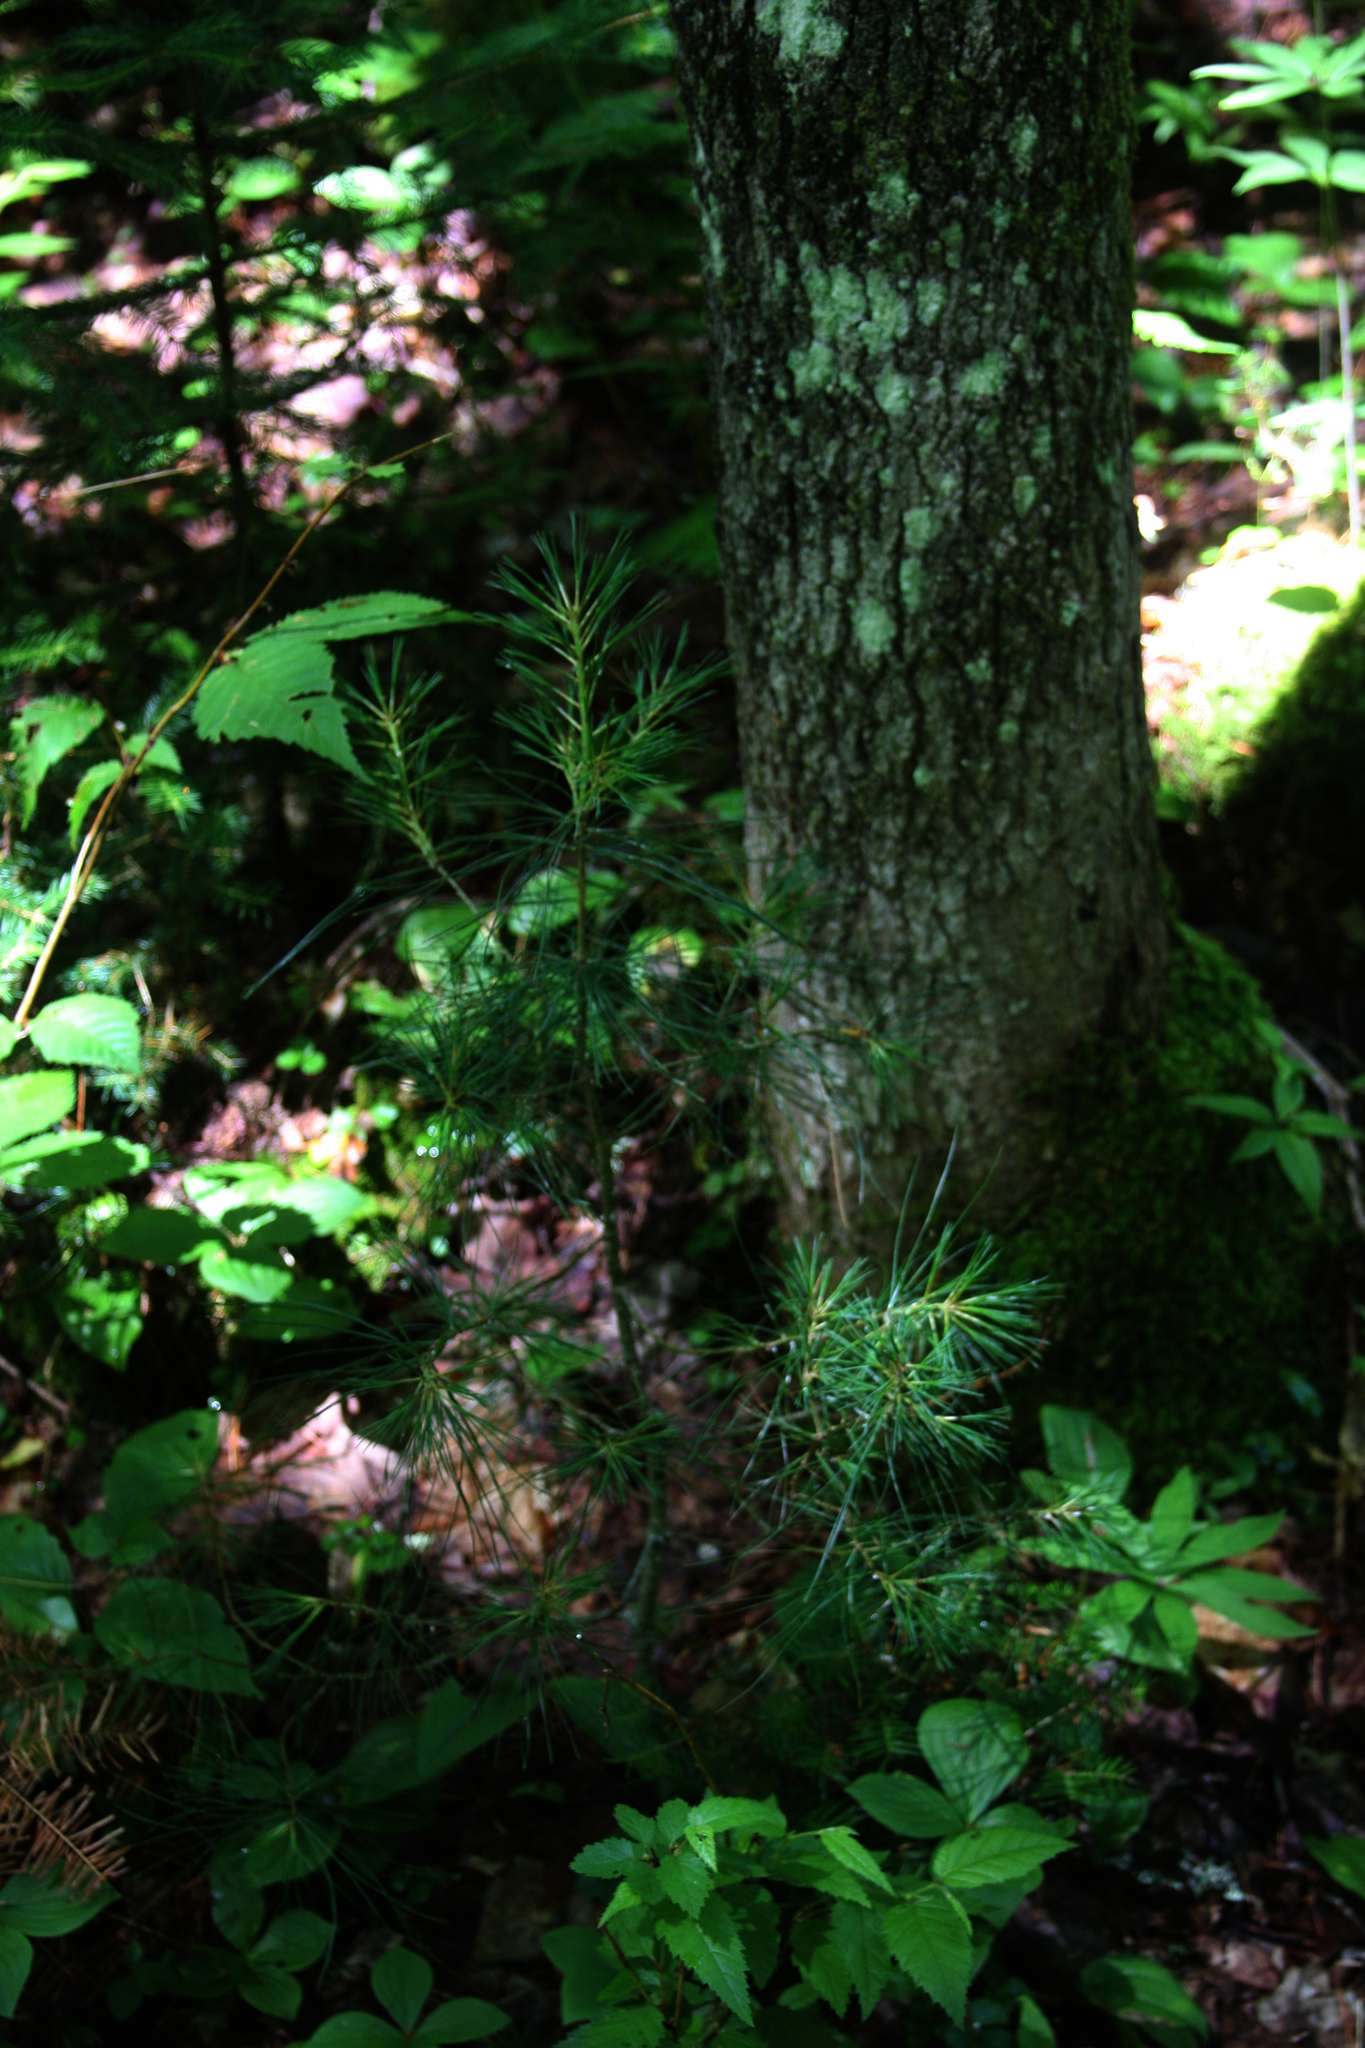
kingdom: Plantae
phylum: Tracheophyta
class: Pinopsida
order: Pinales
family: Pinaceae
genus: Pinus
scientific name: Pinus strobus
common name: Weymouth pine
